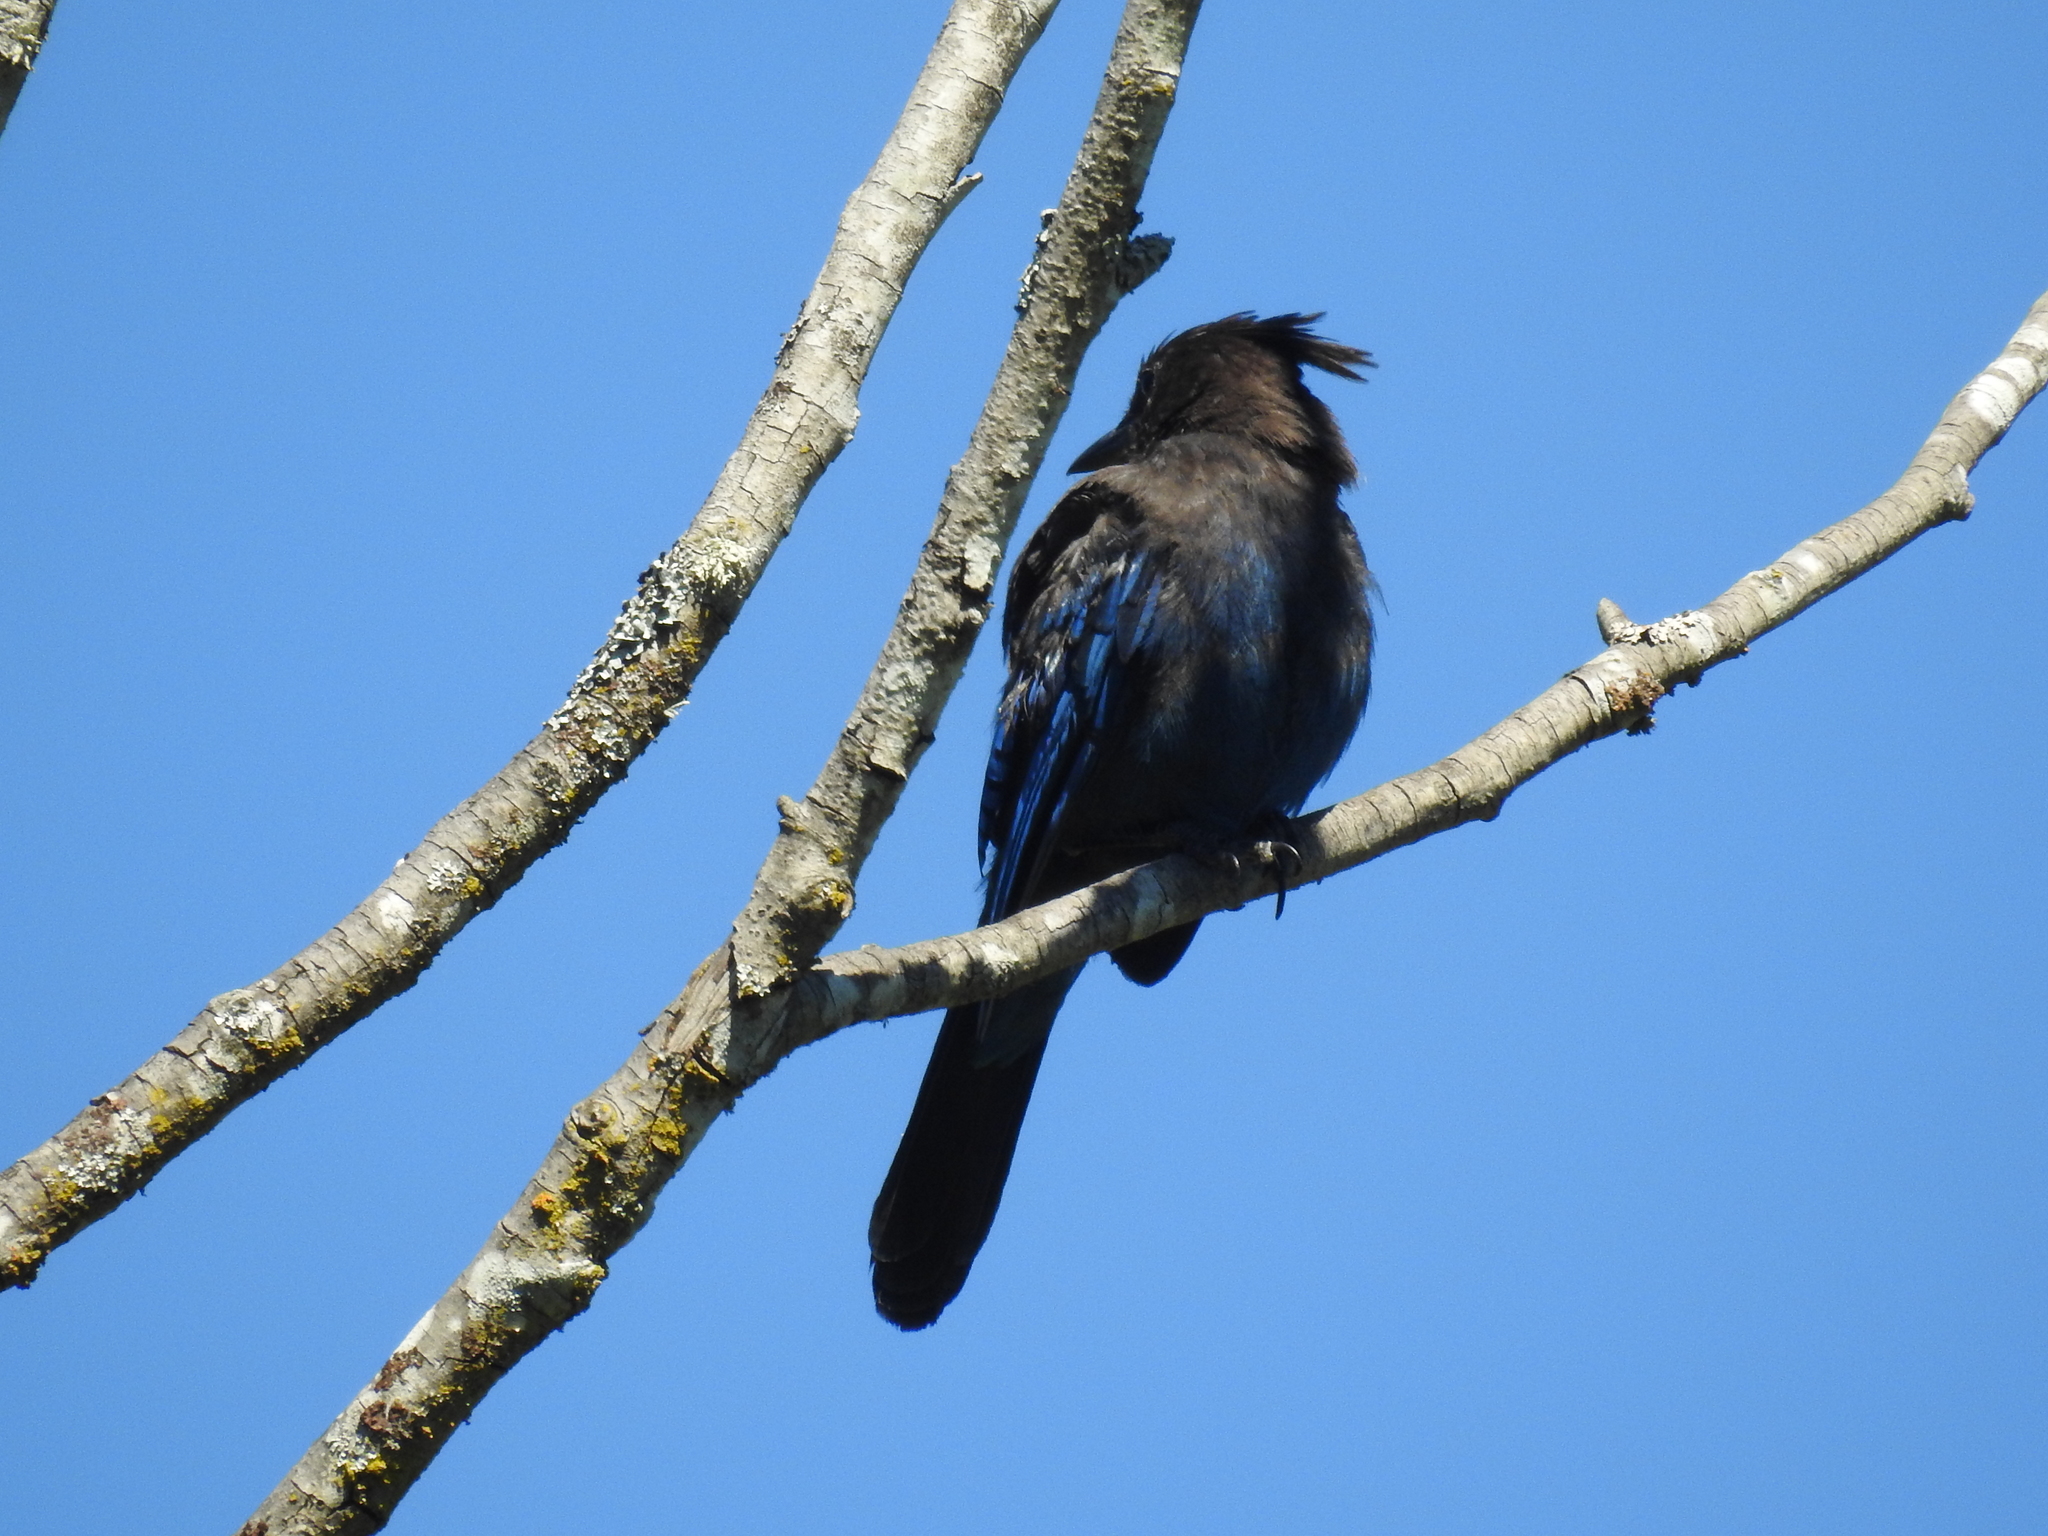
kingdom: Animalia
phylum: Chordata
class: Aves
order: Passeriformes
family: Corvidae
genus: Cyanocitta
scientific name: Cyanocitta stelleri
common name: Steller's jay
